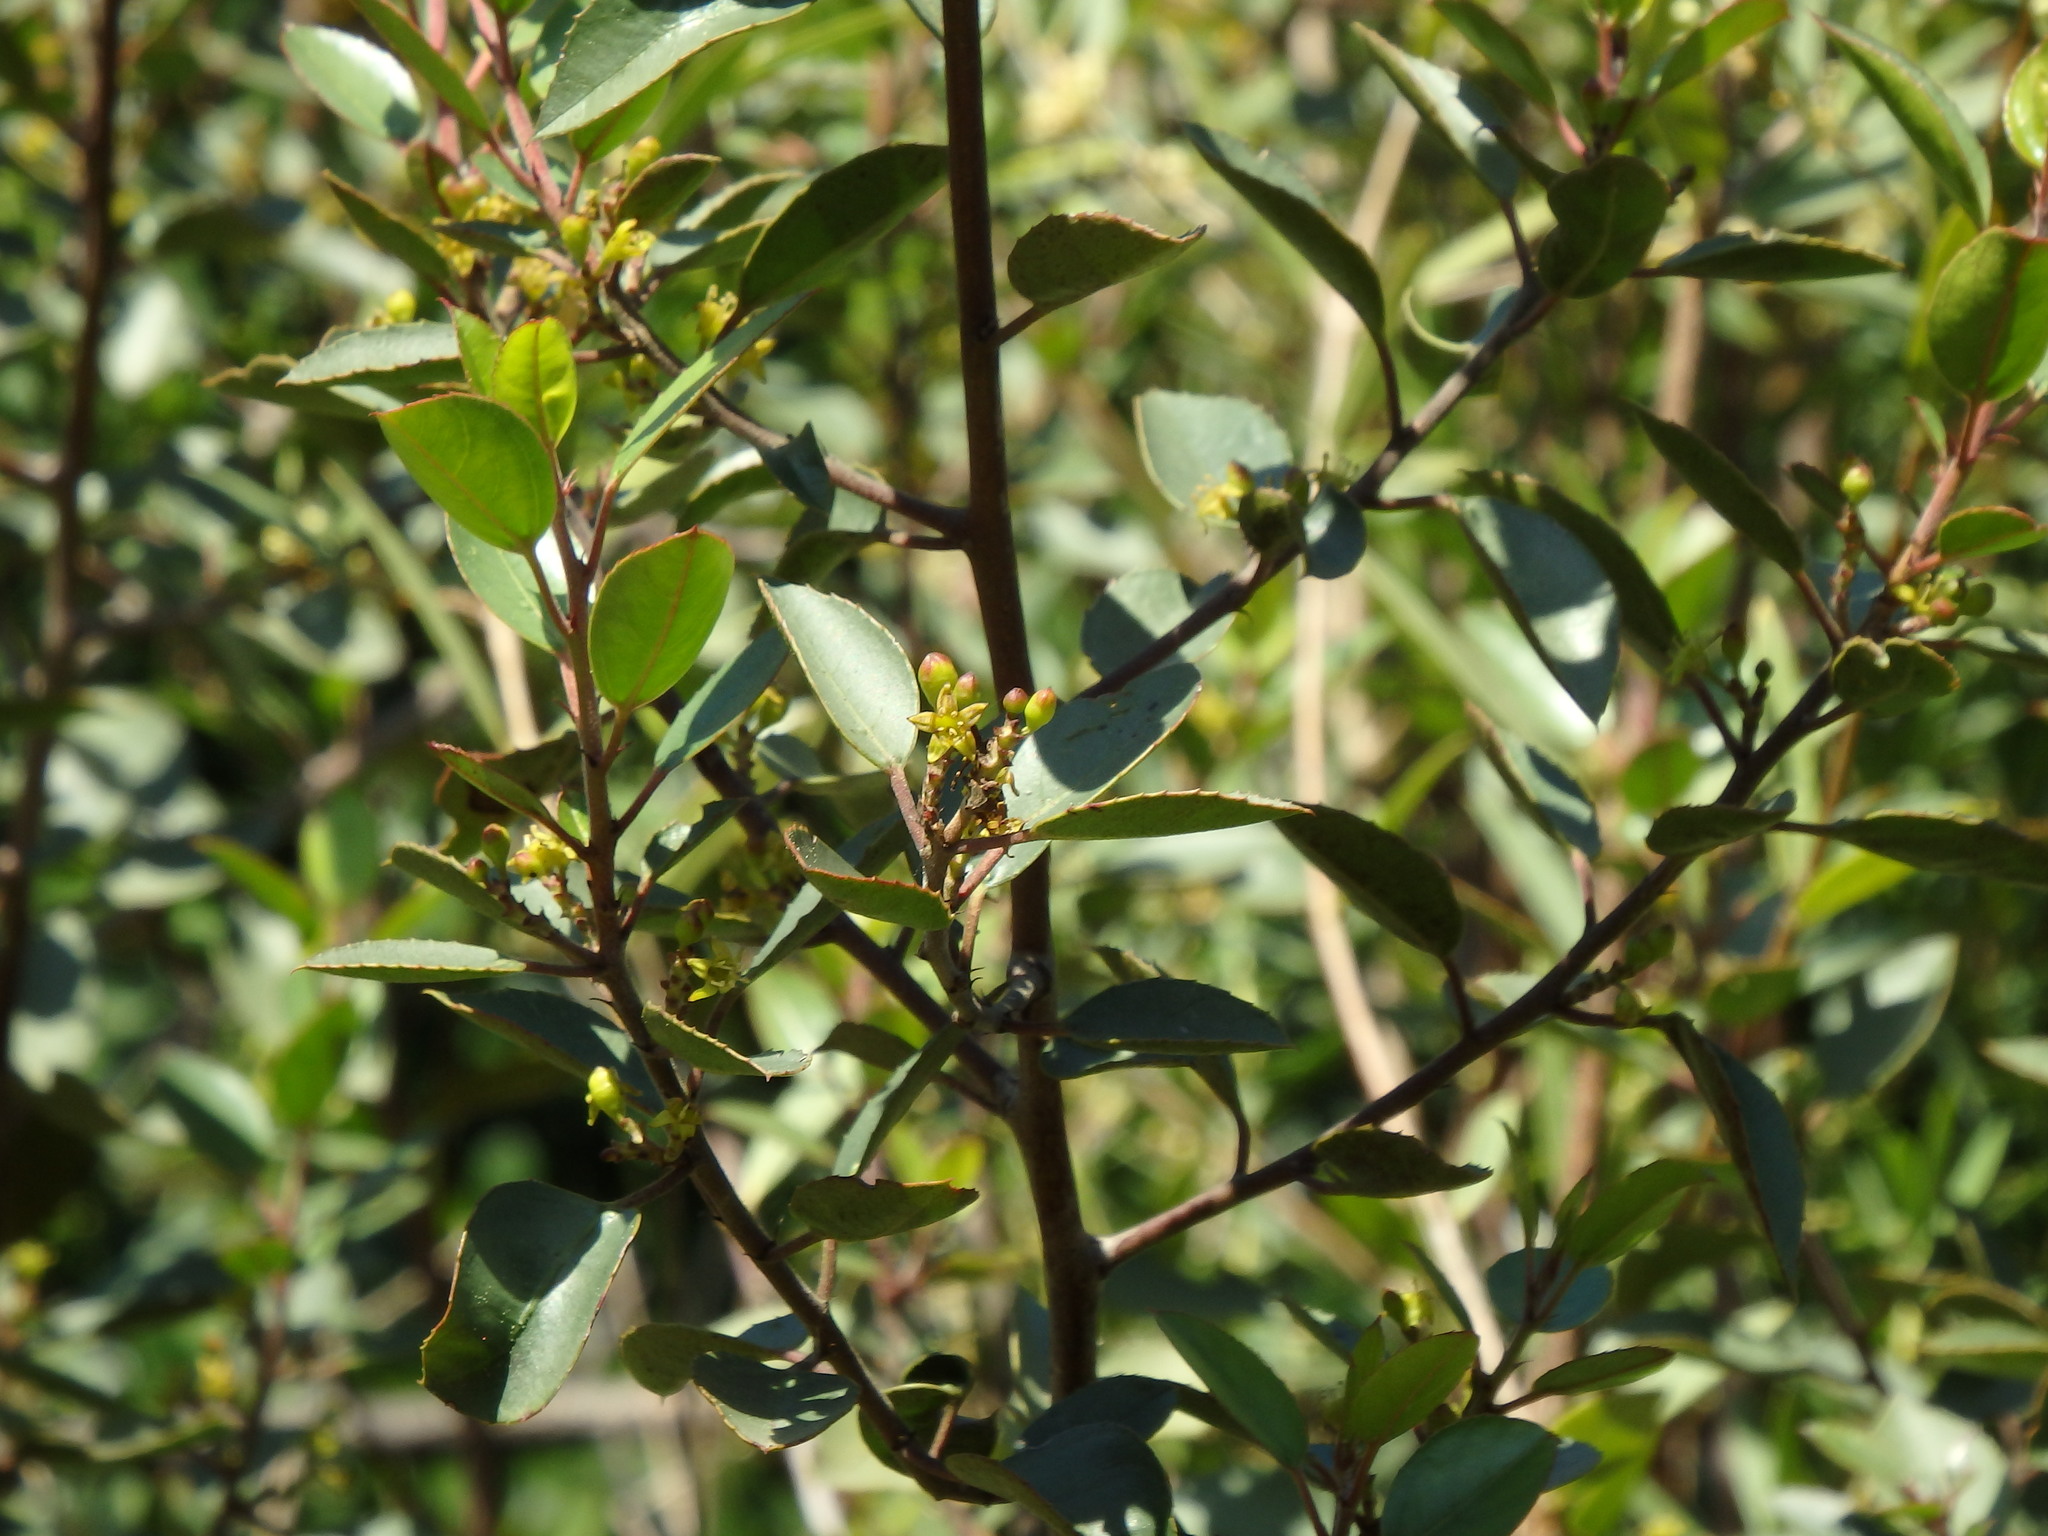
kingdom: Plantae
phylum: Tracheophyta
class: Magnoliopsida
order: Rosales
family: Rhamnaceae
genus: Rhamnus
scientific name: Rhamnus alaternus
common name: Mediterranean buckthorn
